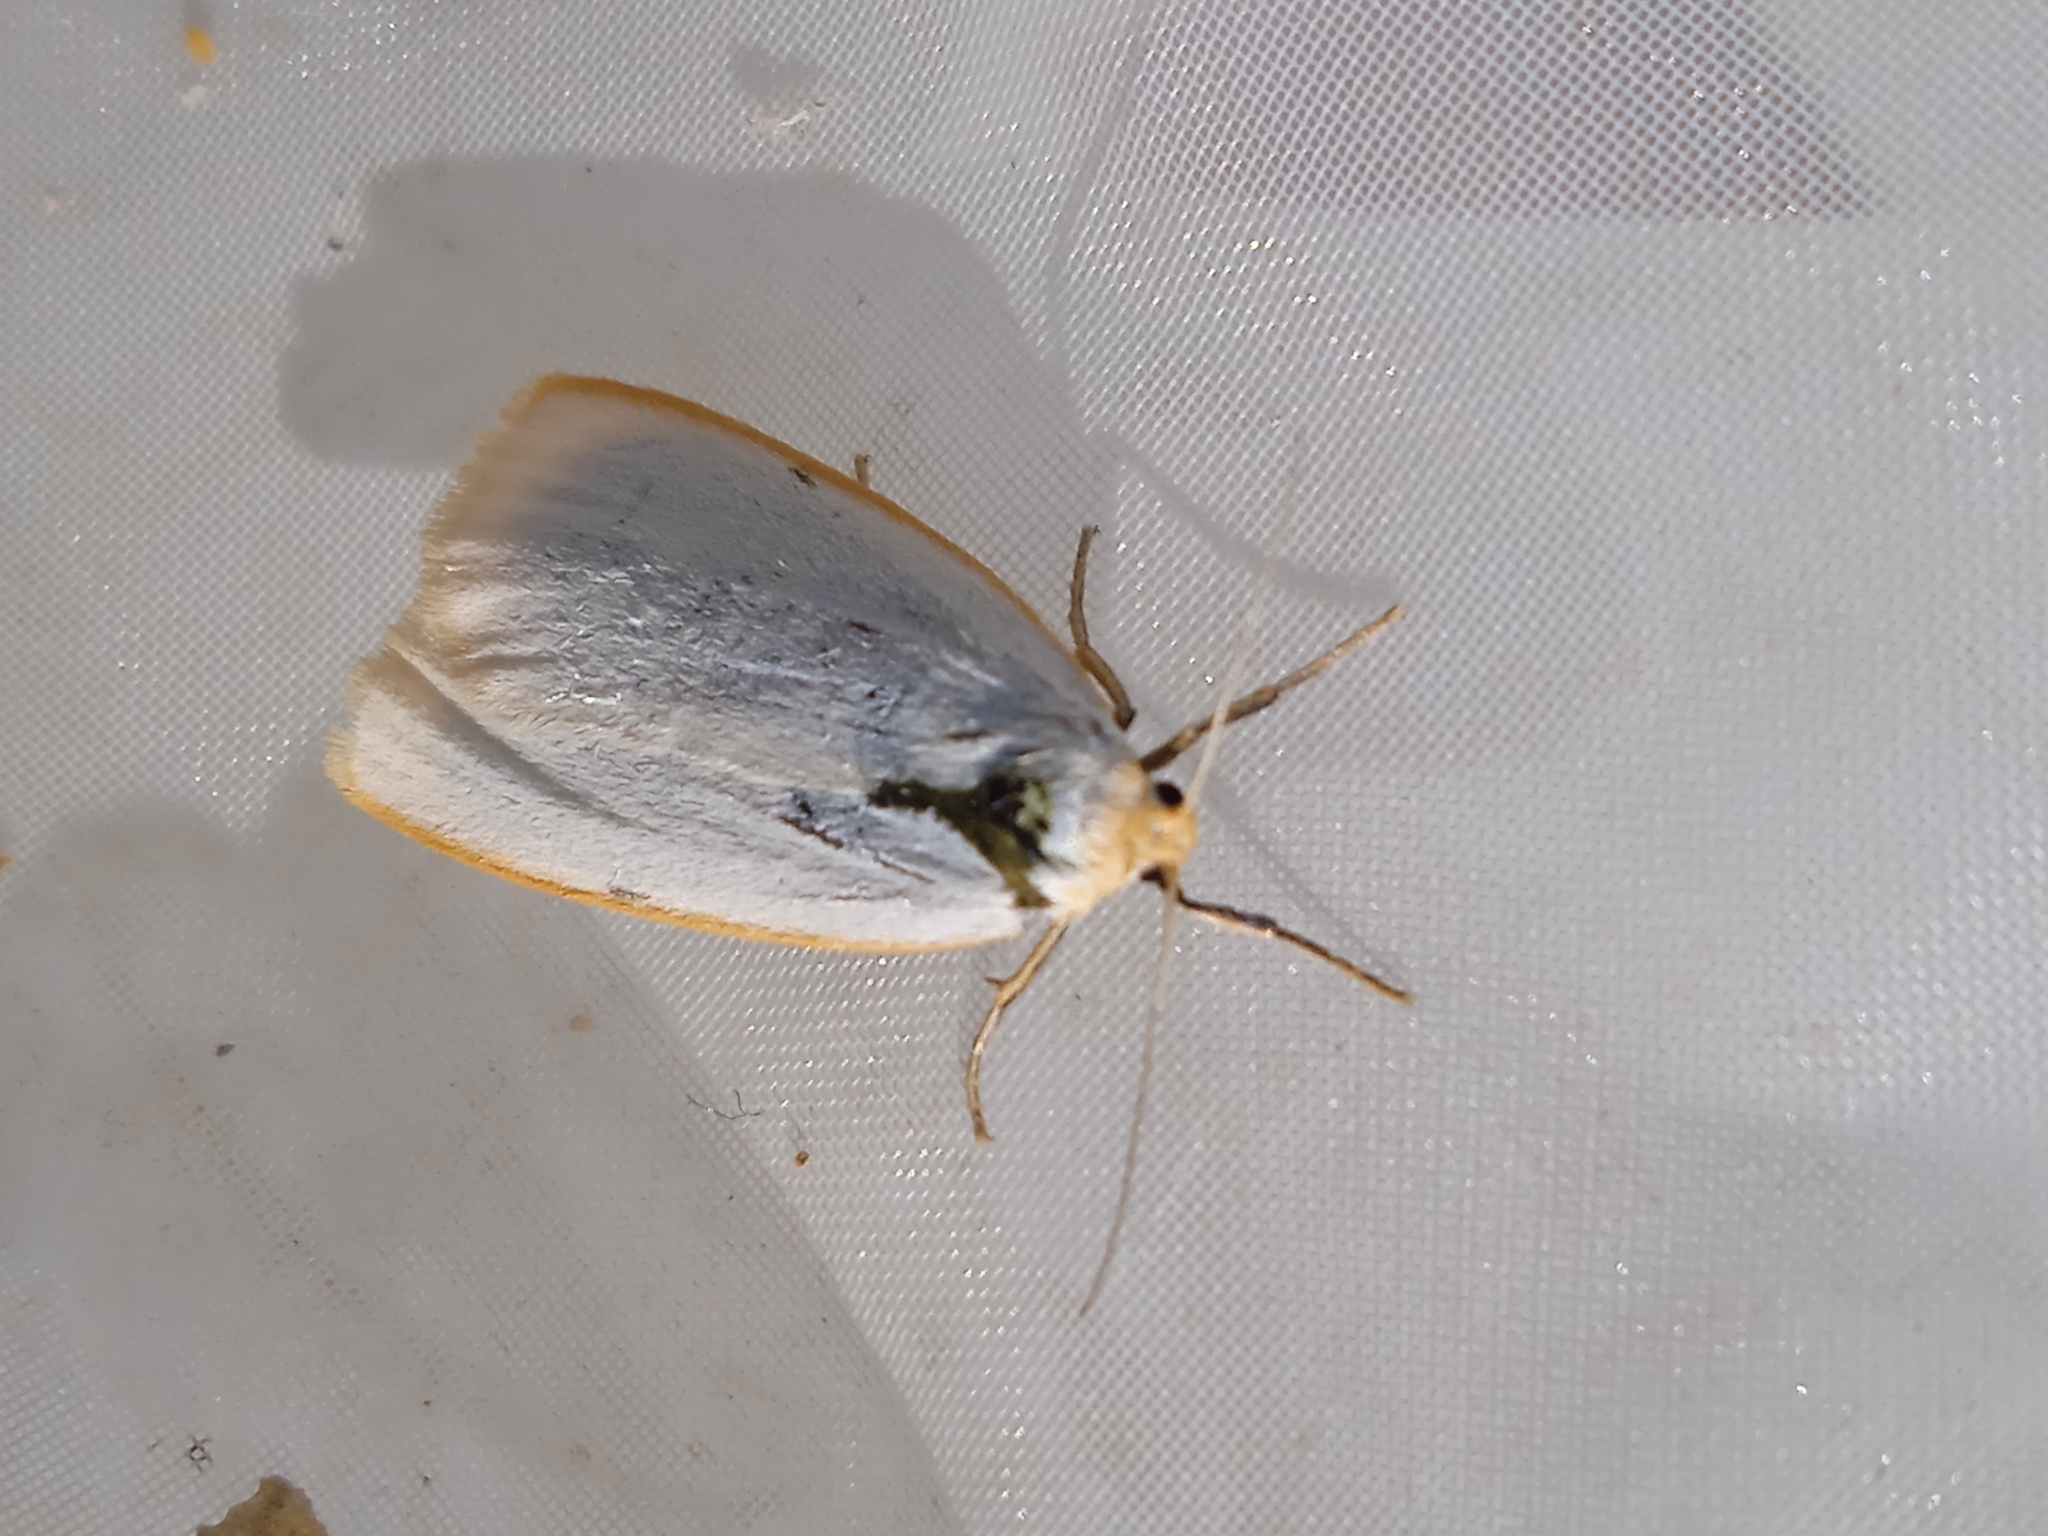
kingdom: Animalia
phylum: Arthropoda
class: Insecta
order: Lepidoptera
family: Erebidae
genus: Cybosia
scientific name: Cybosia mesomella
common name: Four-dotted footman
